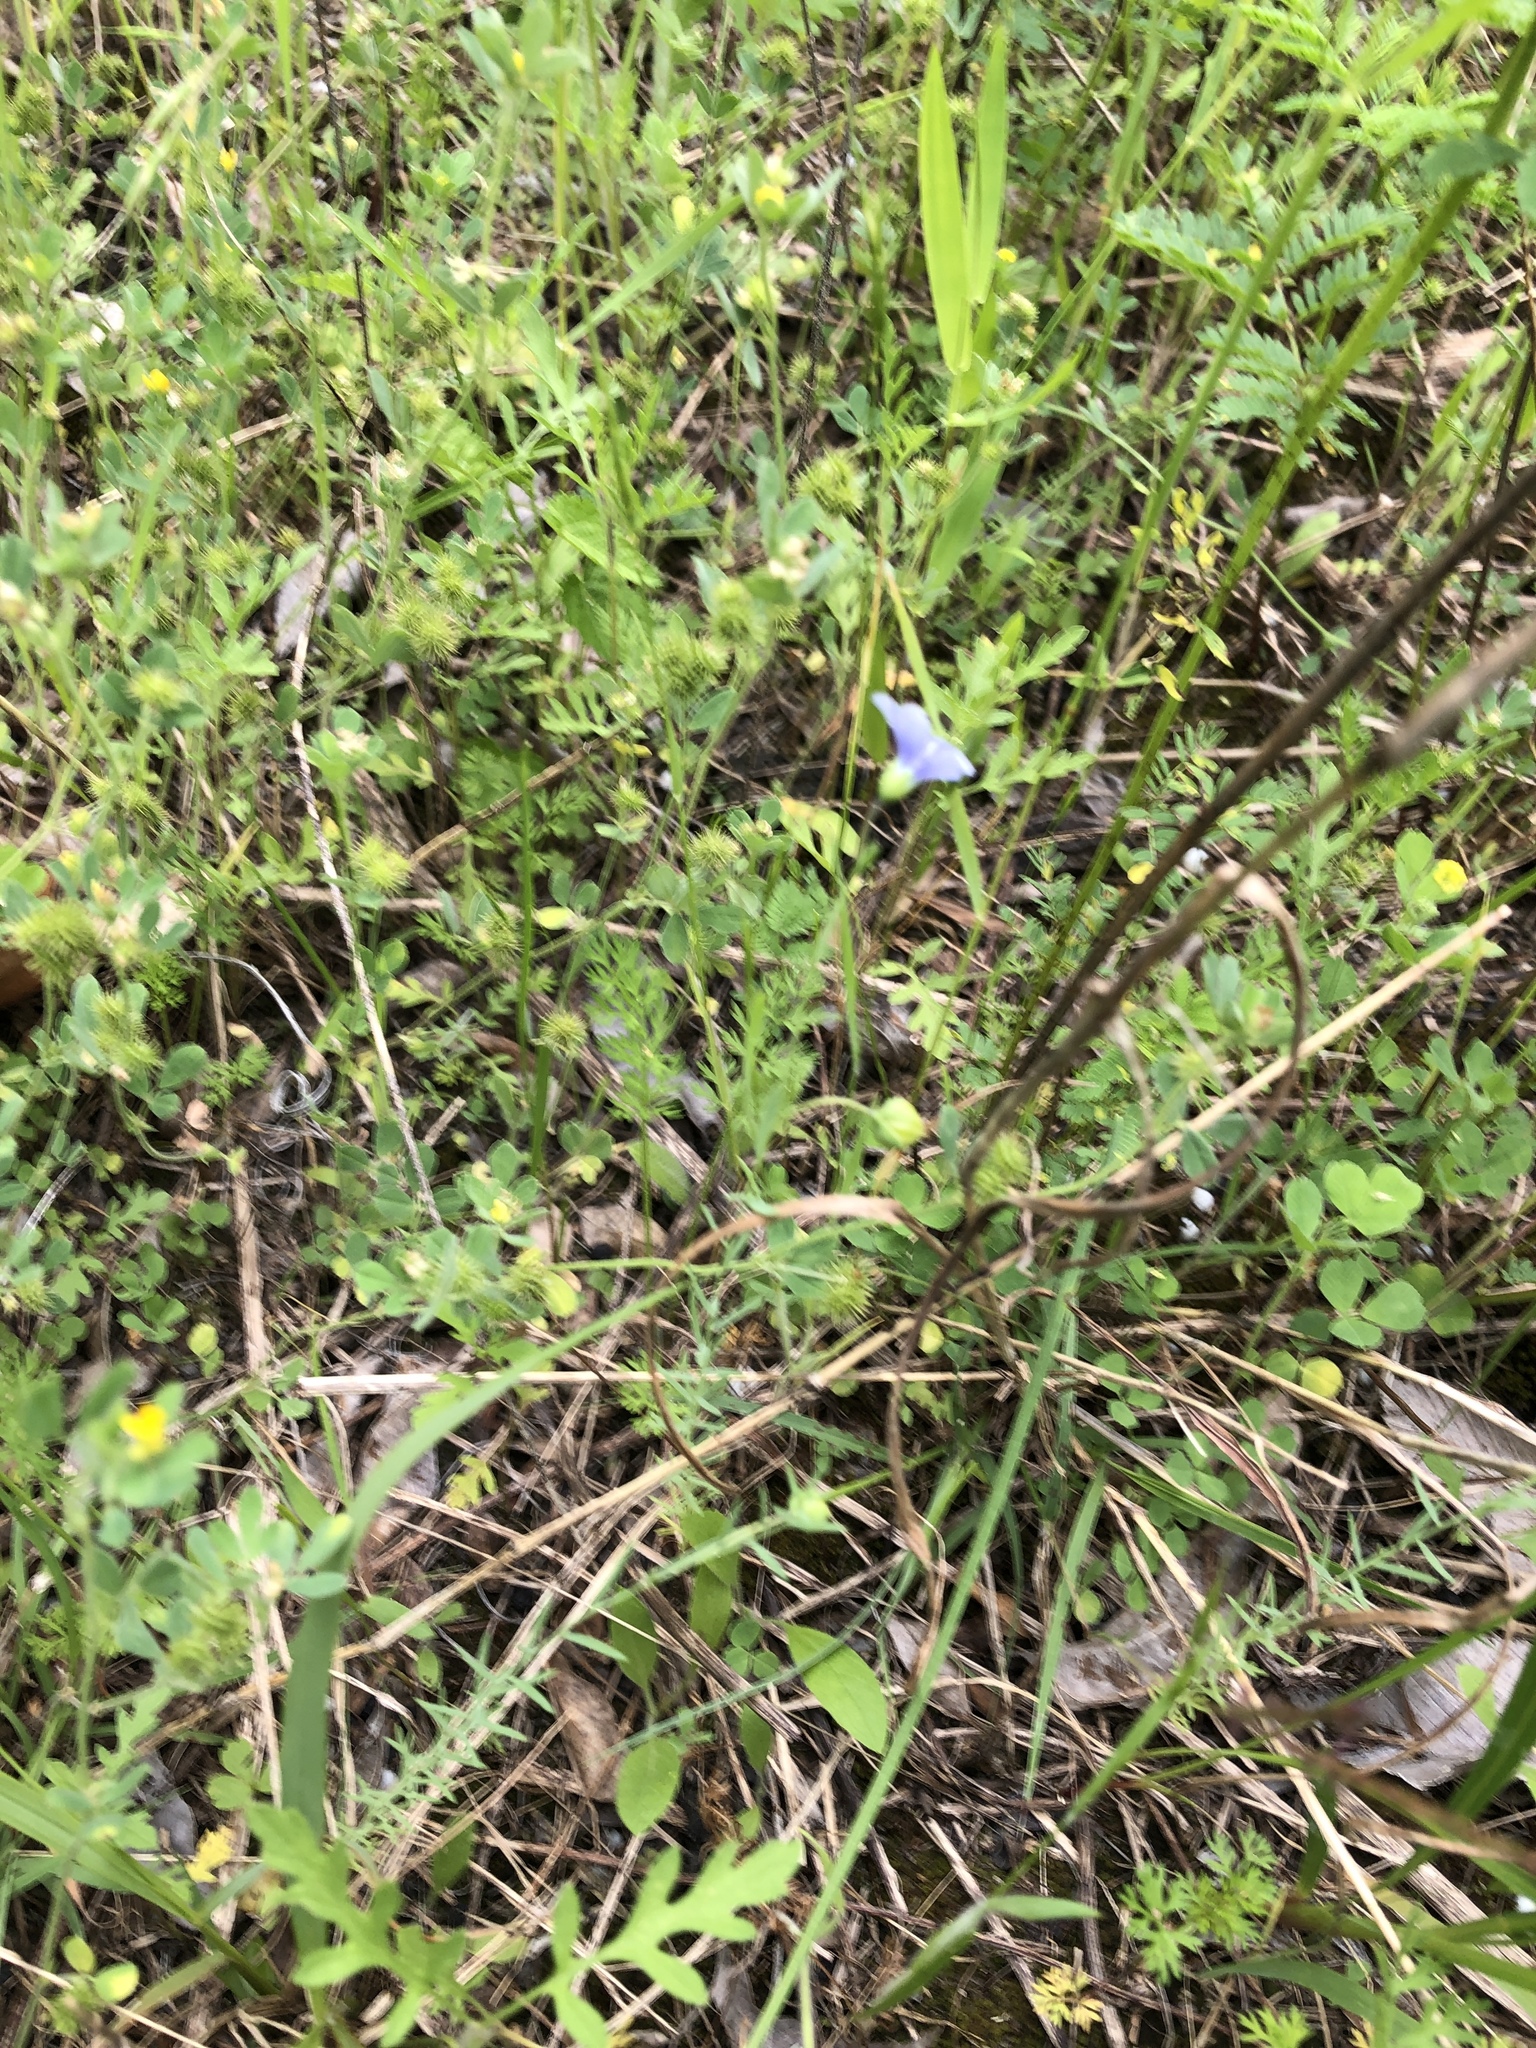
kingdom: Plantae
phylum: Tracheophyta
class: Magnoliopsida
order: Malpighiales
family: Linaceae
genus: Linum
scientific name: Linum pratense
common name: Norton's flax
